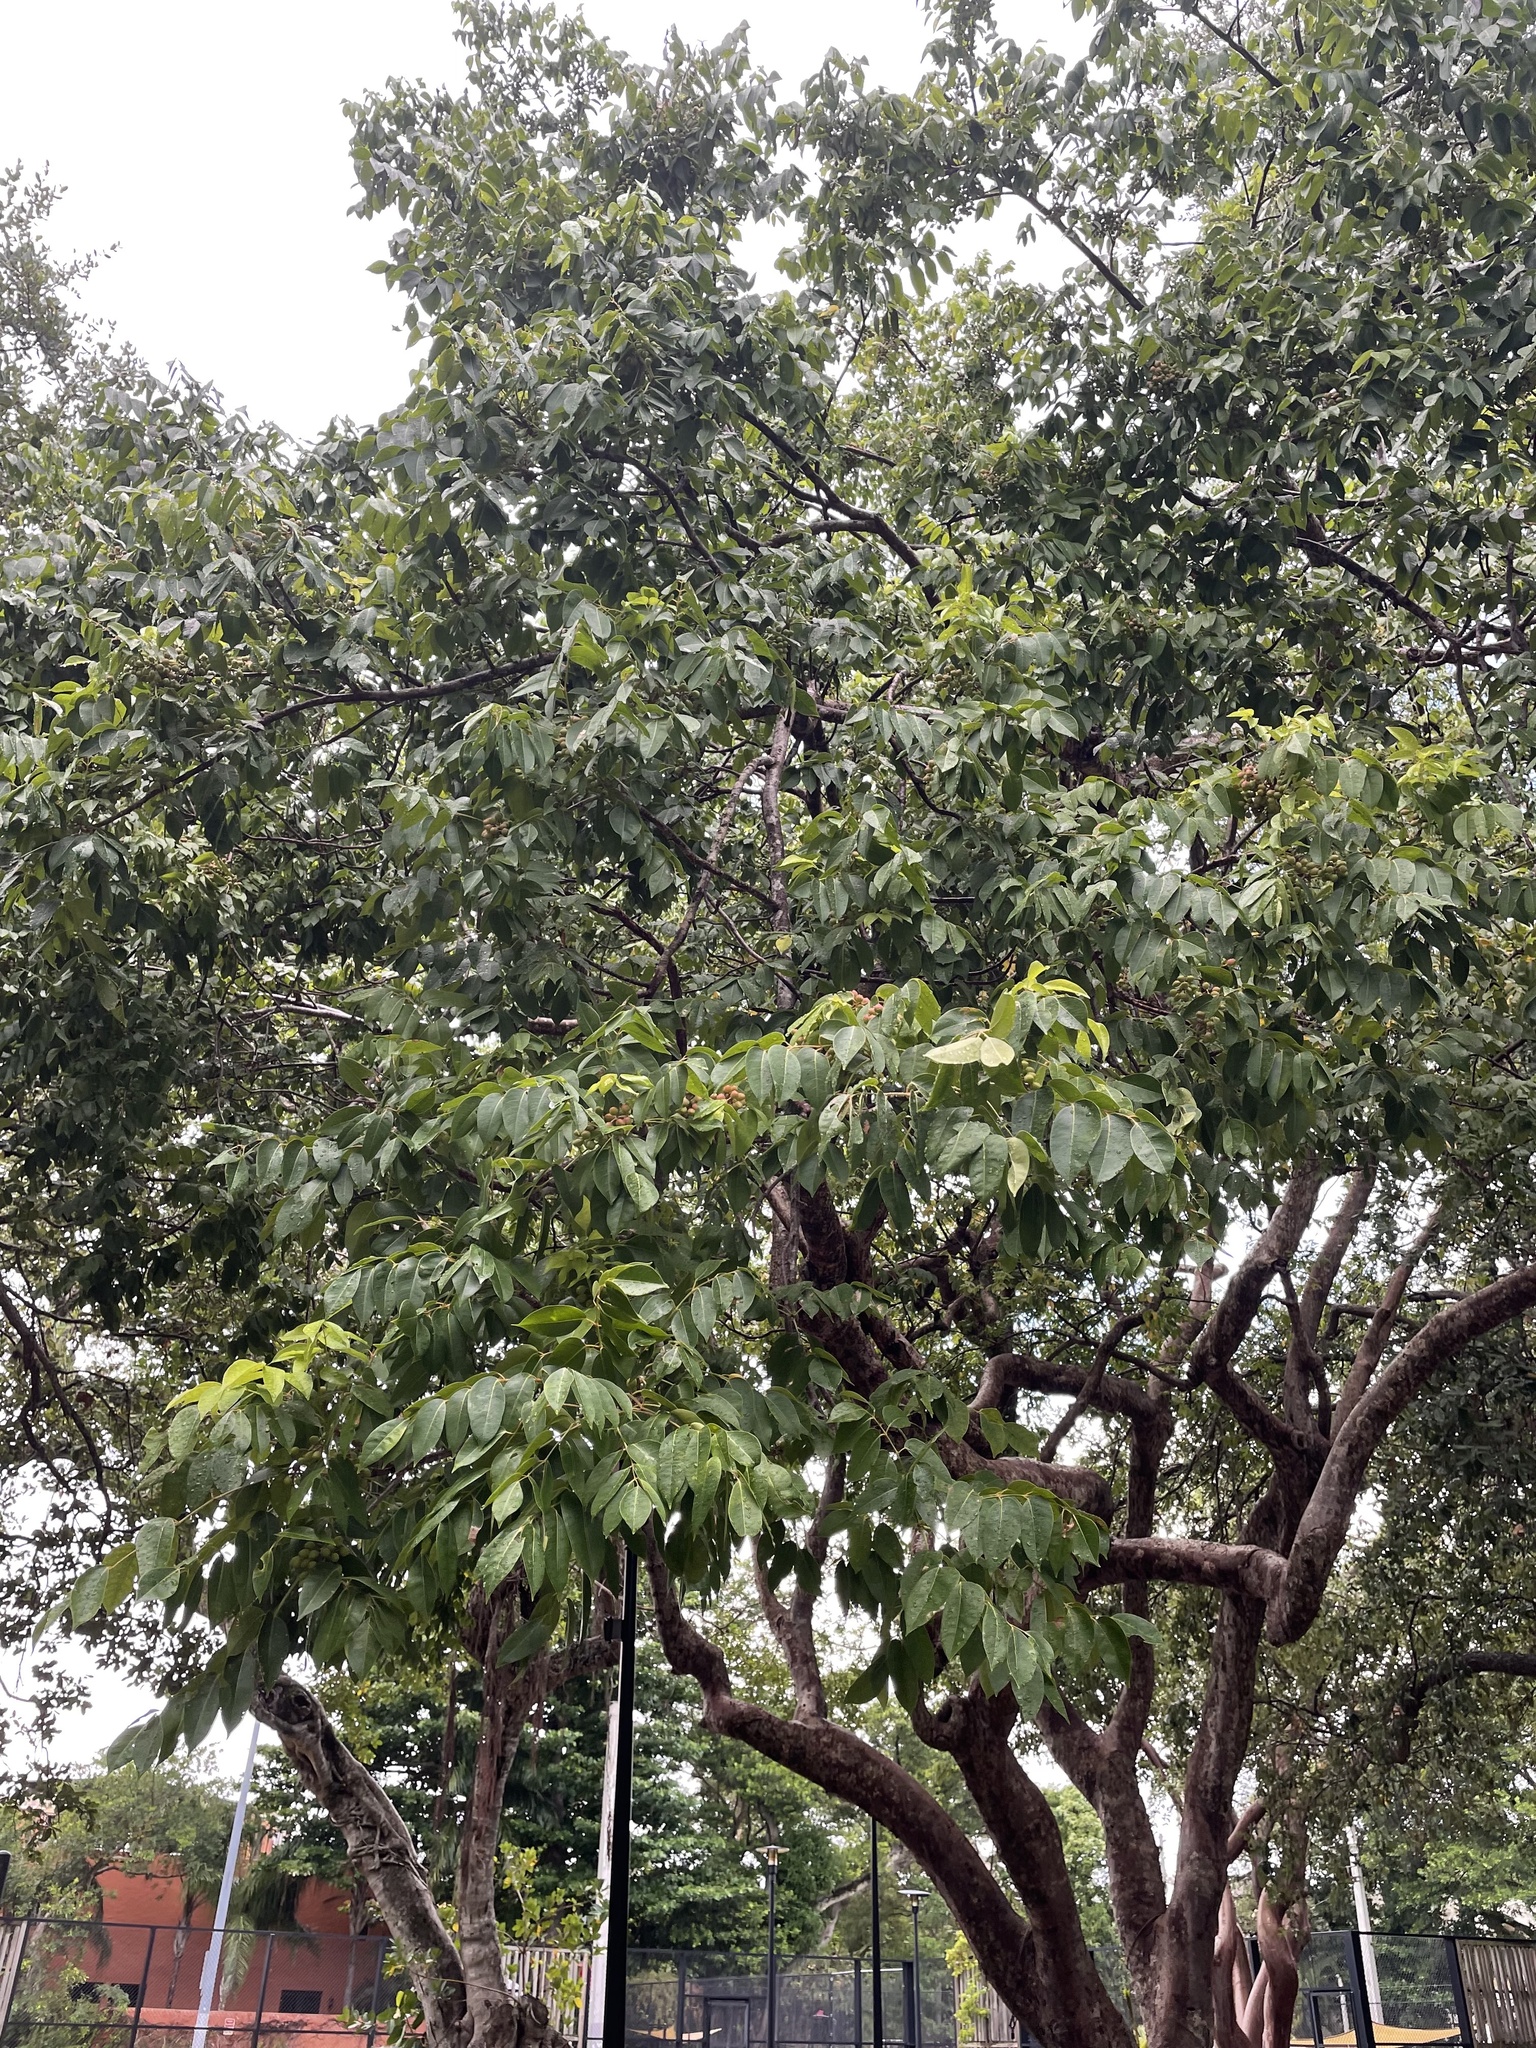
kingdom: Plantae
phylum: Tracheophyta
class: Magnoliopsida
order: Sapindales
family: Burseraceae
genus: Bursera
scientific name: Bursera simaruba
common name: Turpentine tree
